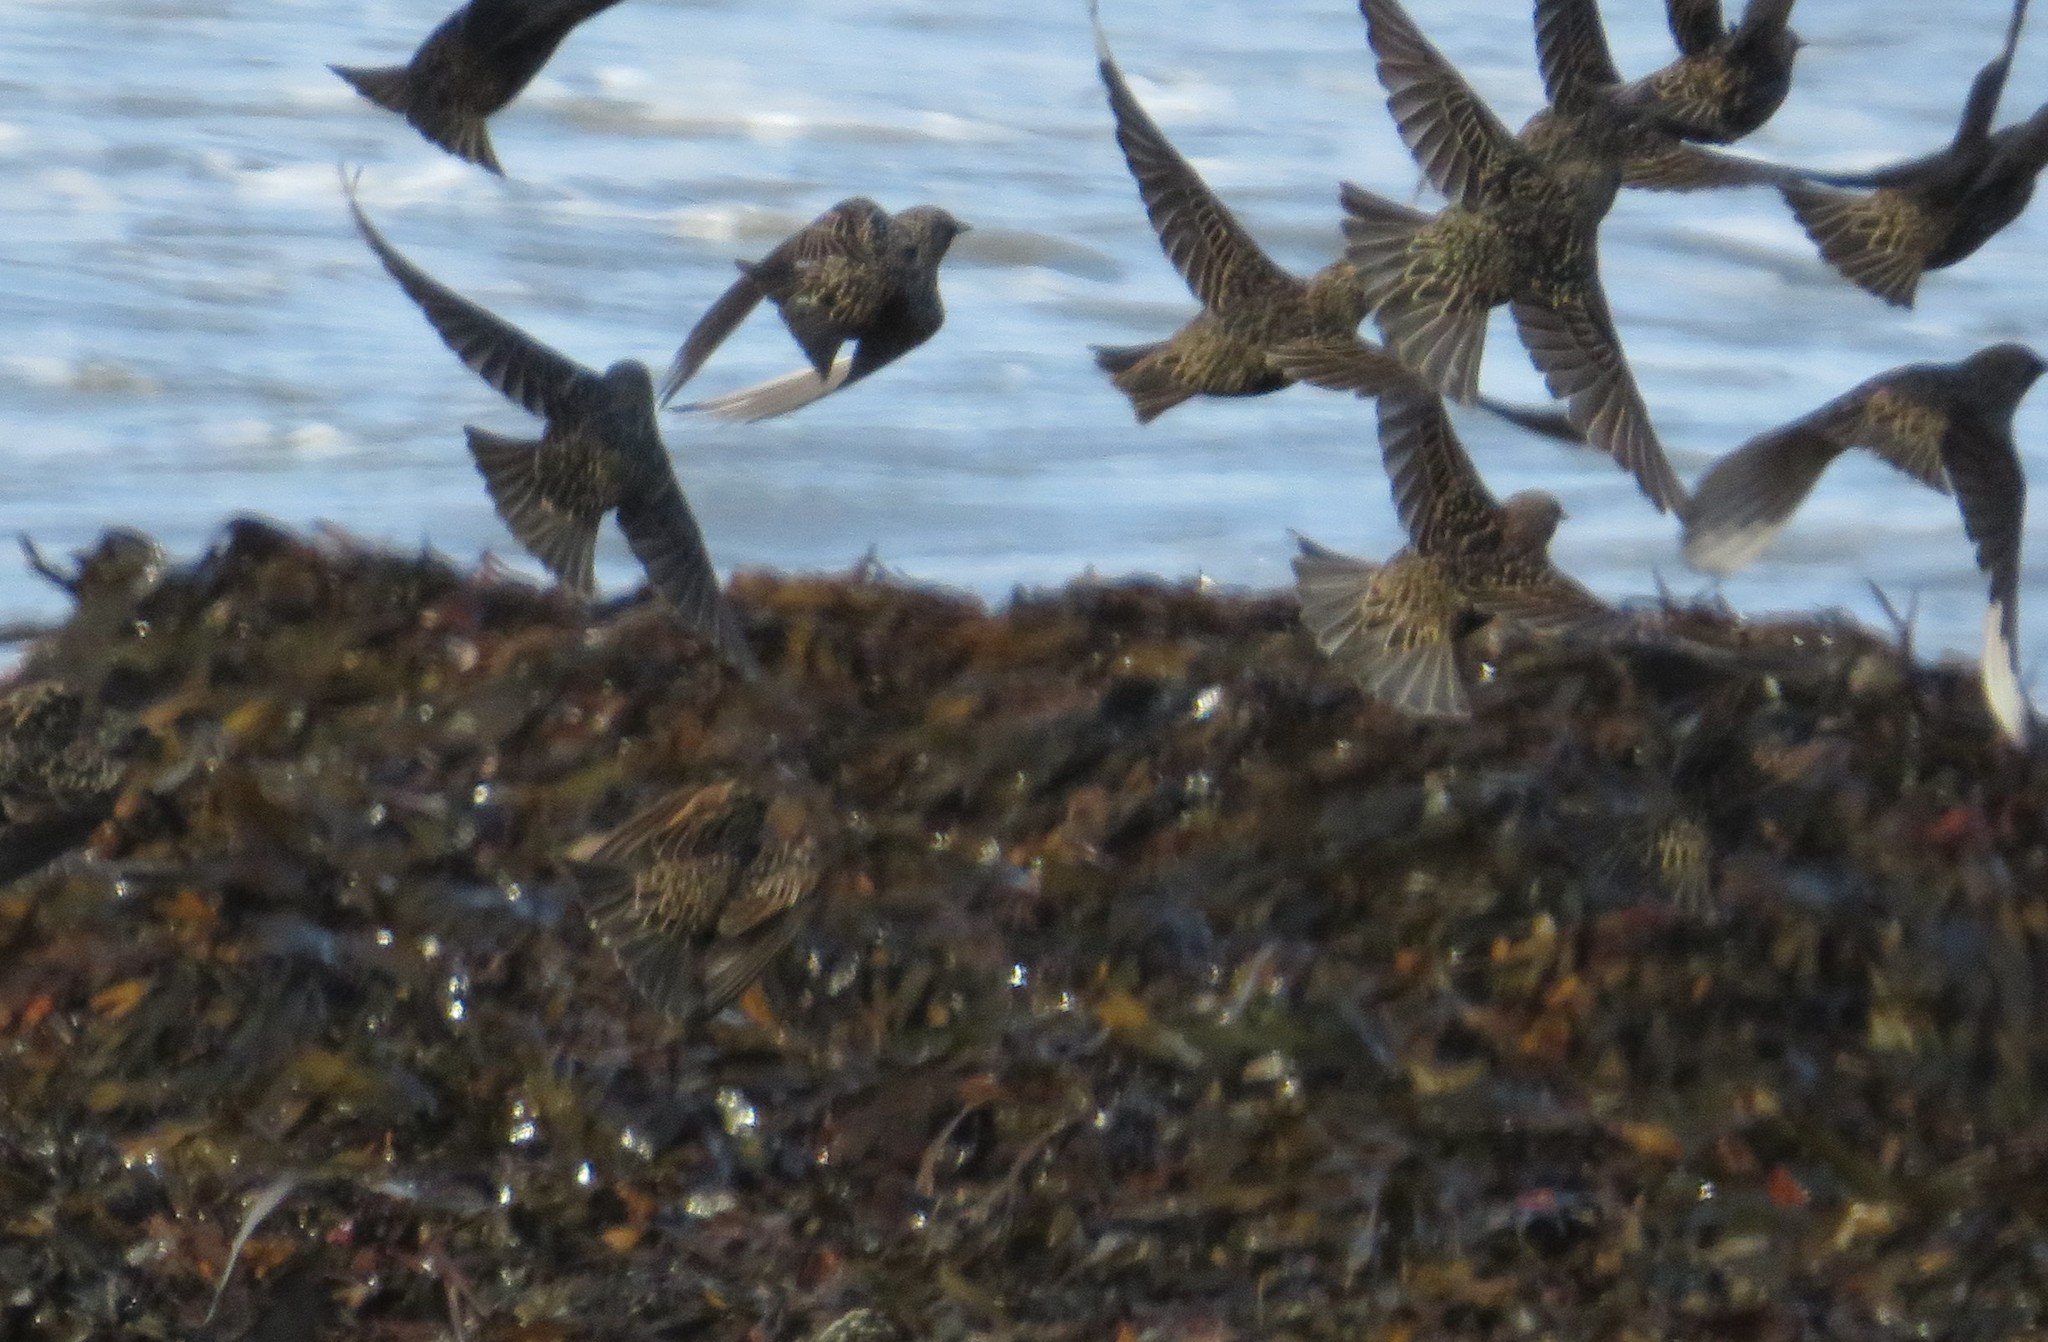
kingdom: Animalia
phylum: Chordata
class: Aves
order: Passeriformes
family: Sturnidae
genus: Sturnus
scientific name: Sturnus vulgaris
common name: Common starling
